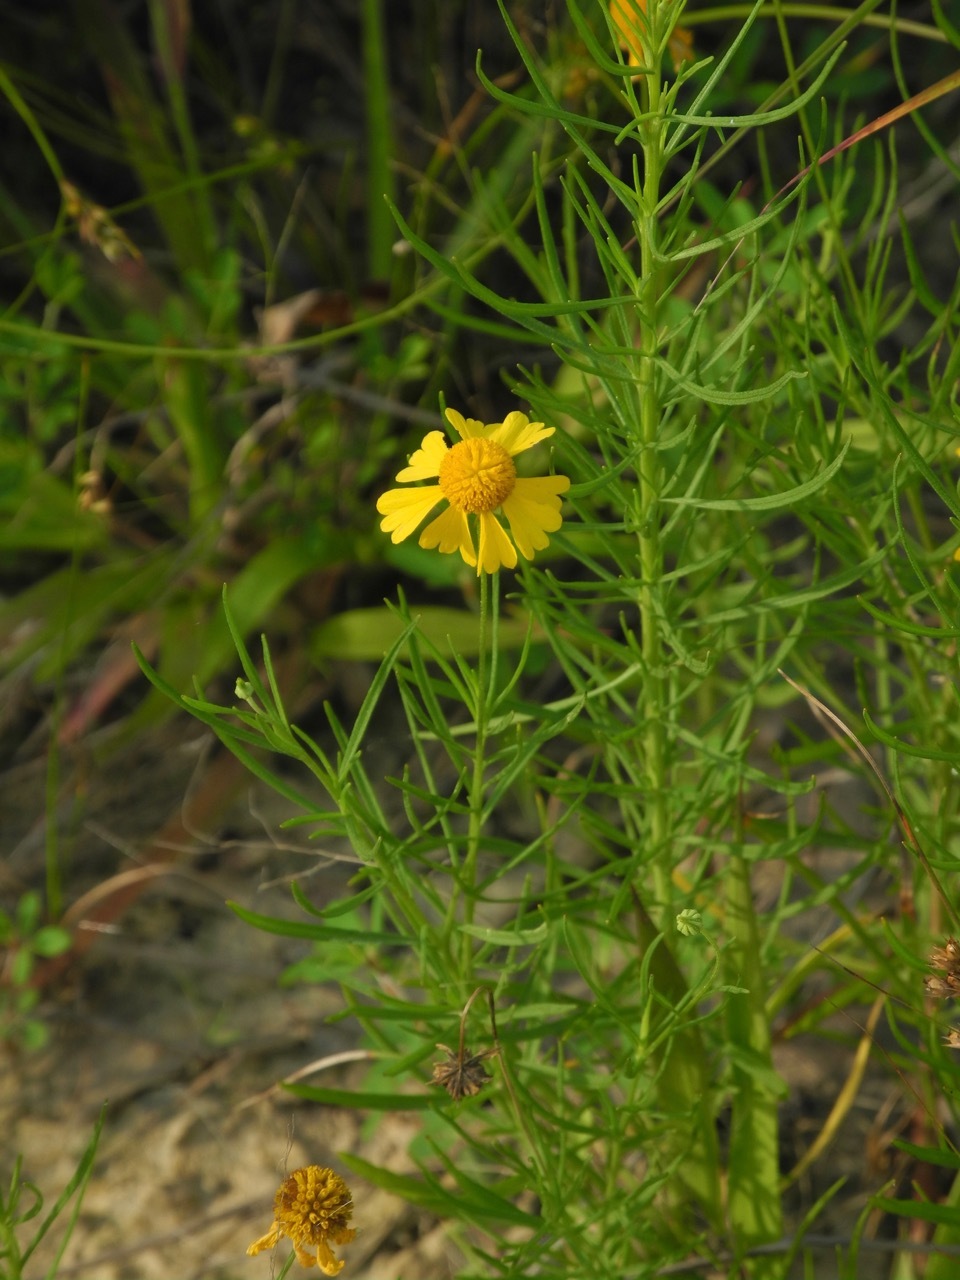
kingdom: Plantae
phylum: Tracheophyta
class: Magnoliopsida
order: Asterales
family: Asteraceae
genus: Helenium
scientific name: Helenium amarum
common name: Bitter sneezeweed
